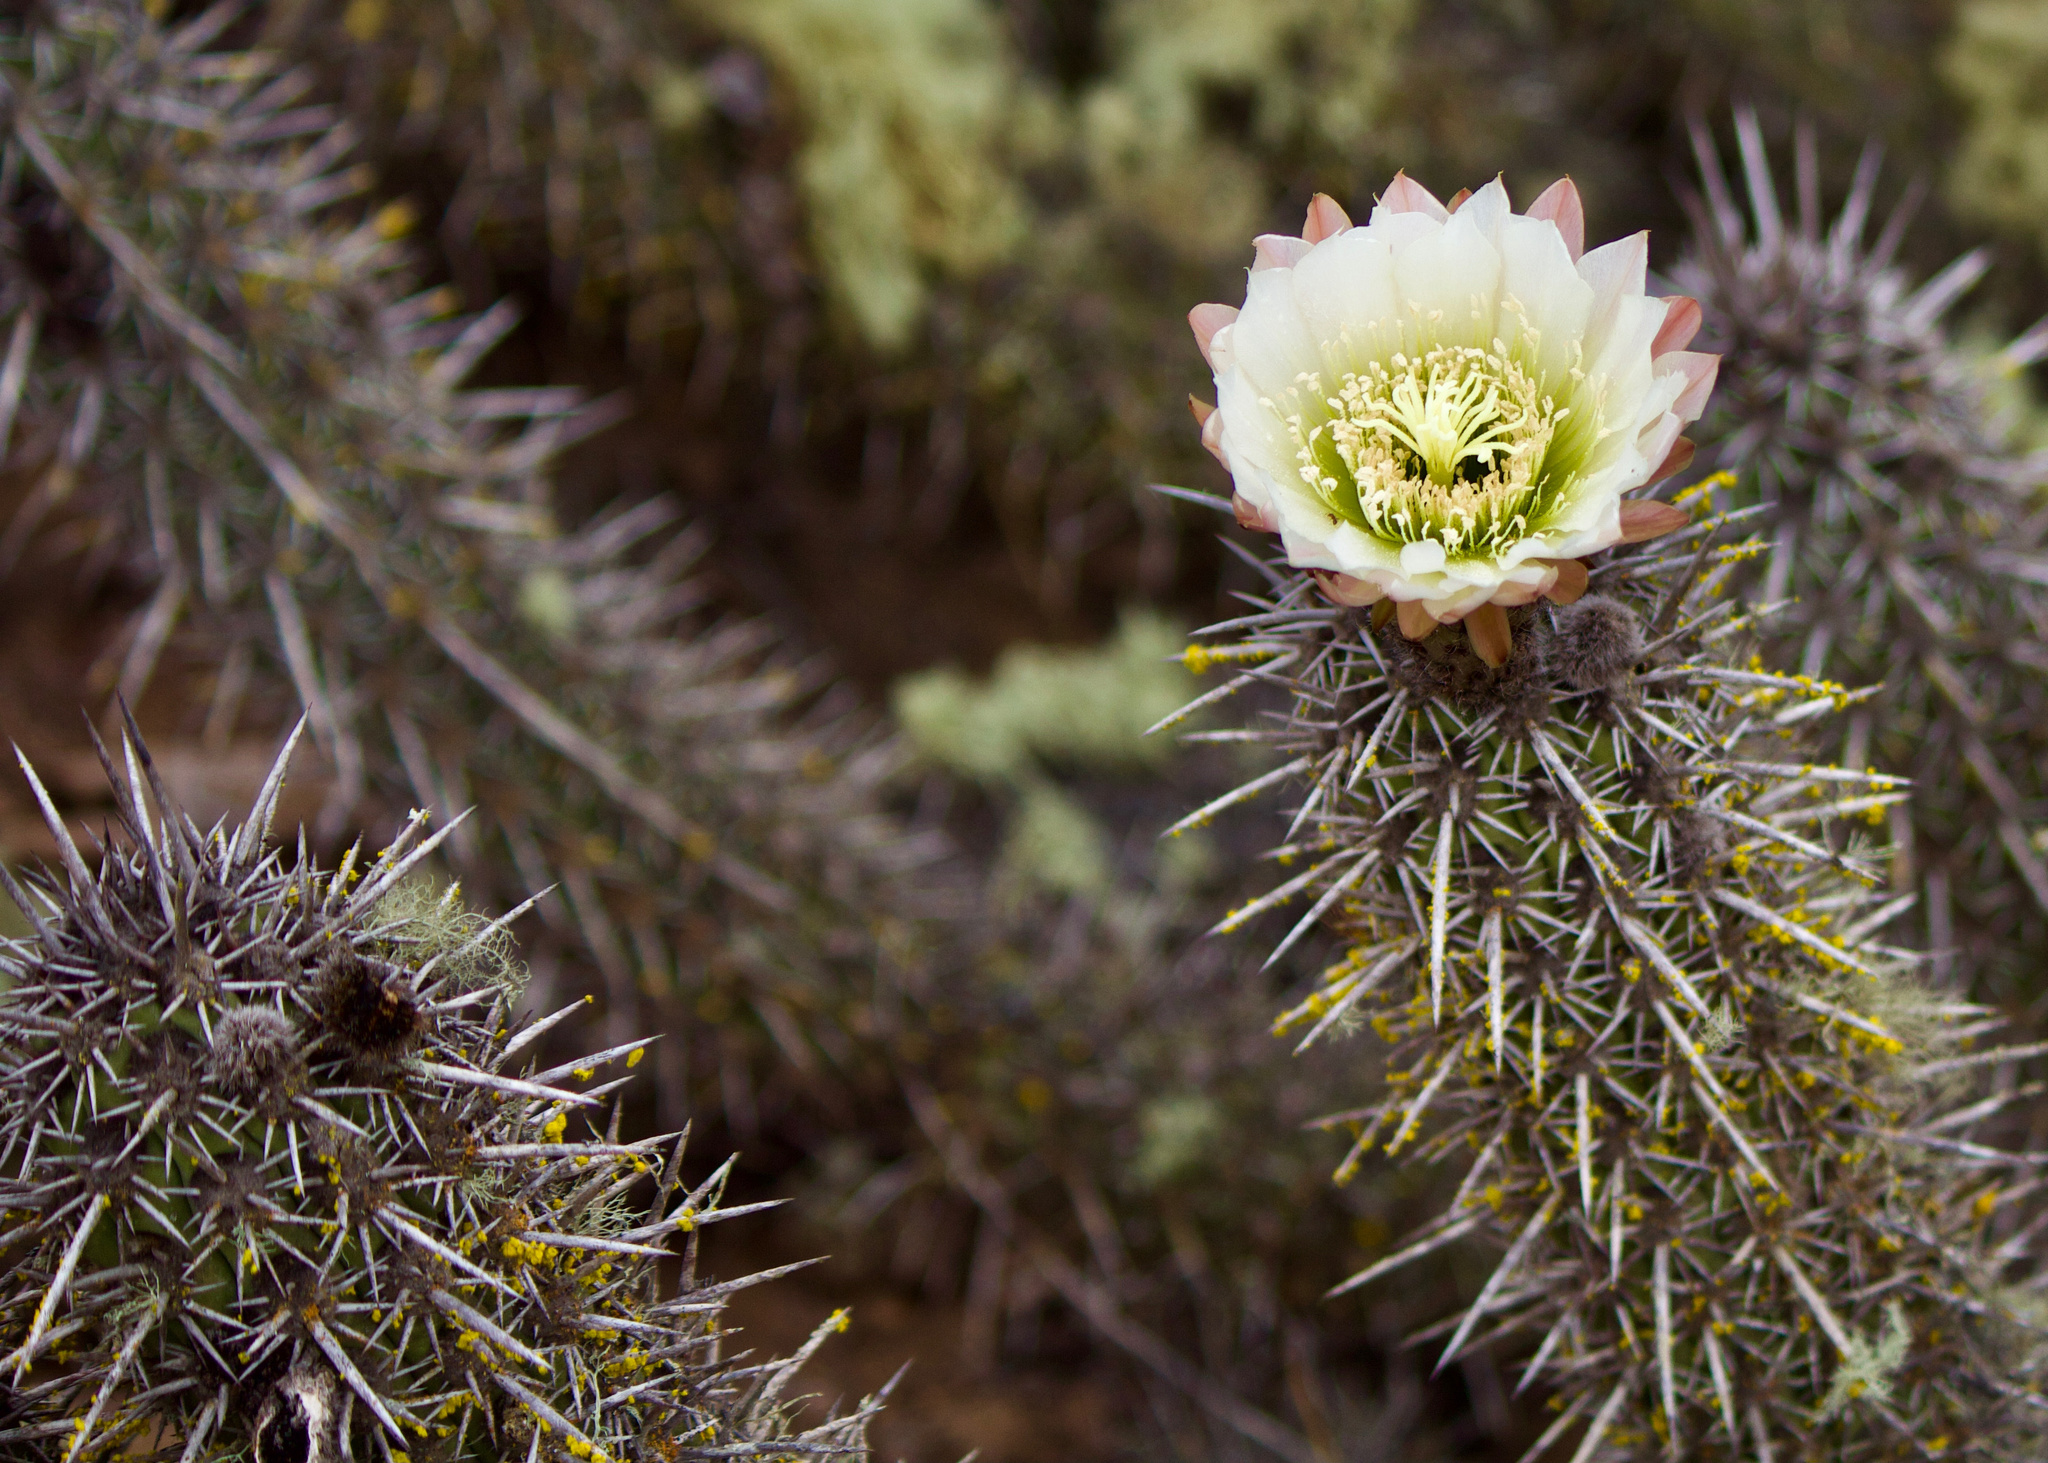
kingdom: Plantae
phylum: Tracheophyta
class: Magnoliopsida
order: Caryophyllales
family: Cactaceae
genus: Leucostele
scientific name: Leucostele nigripilis
